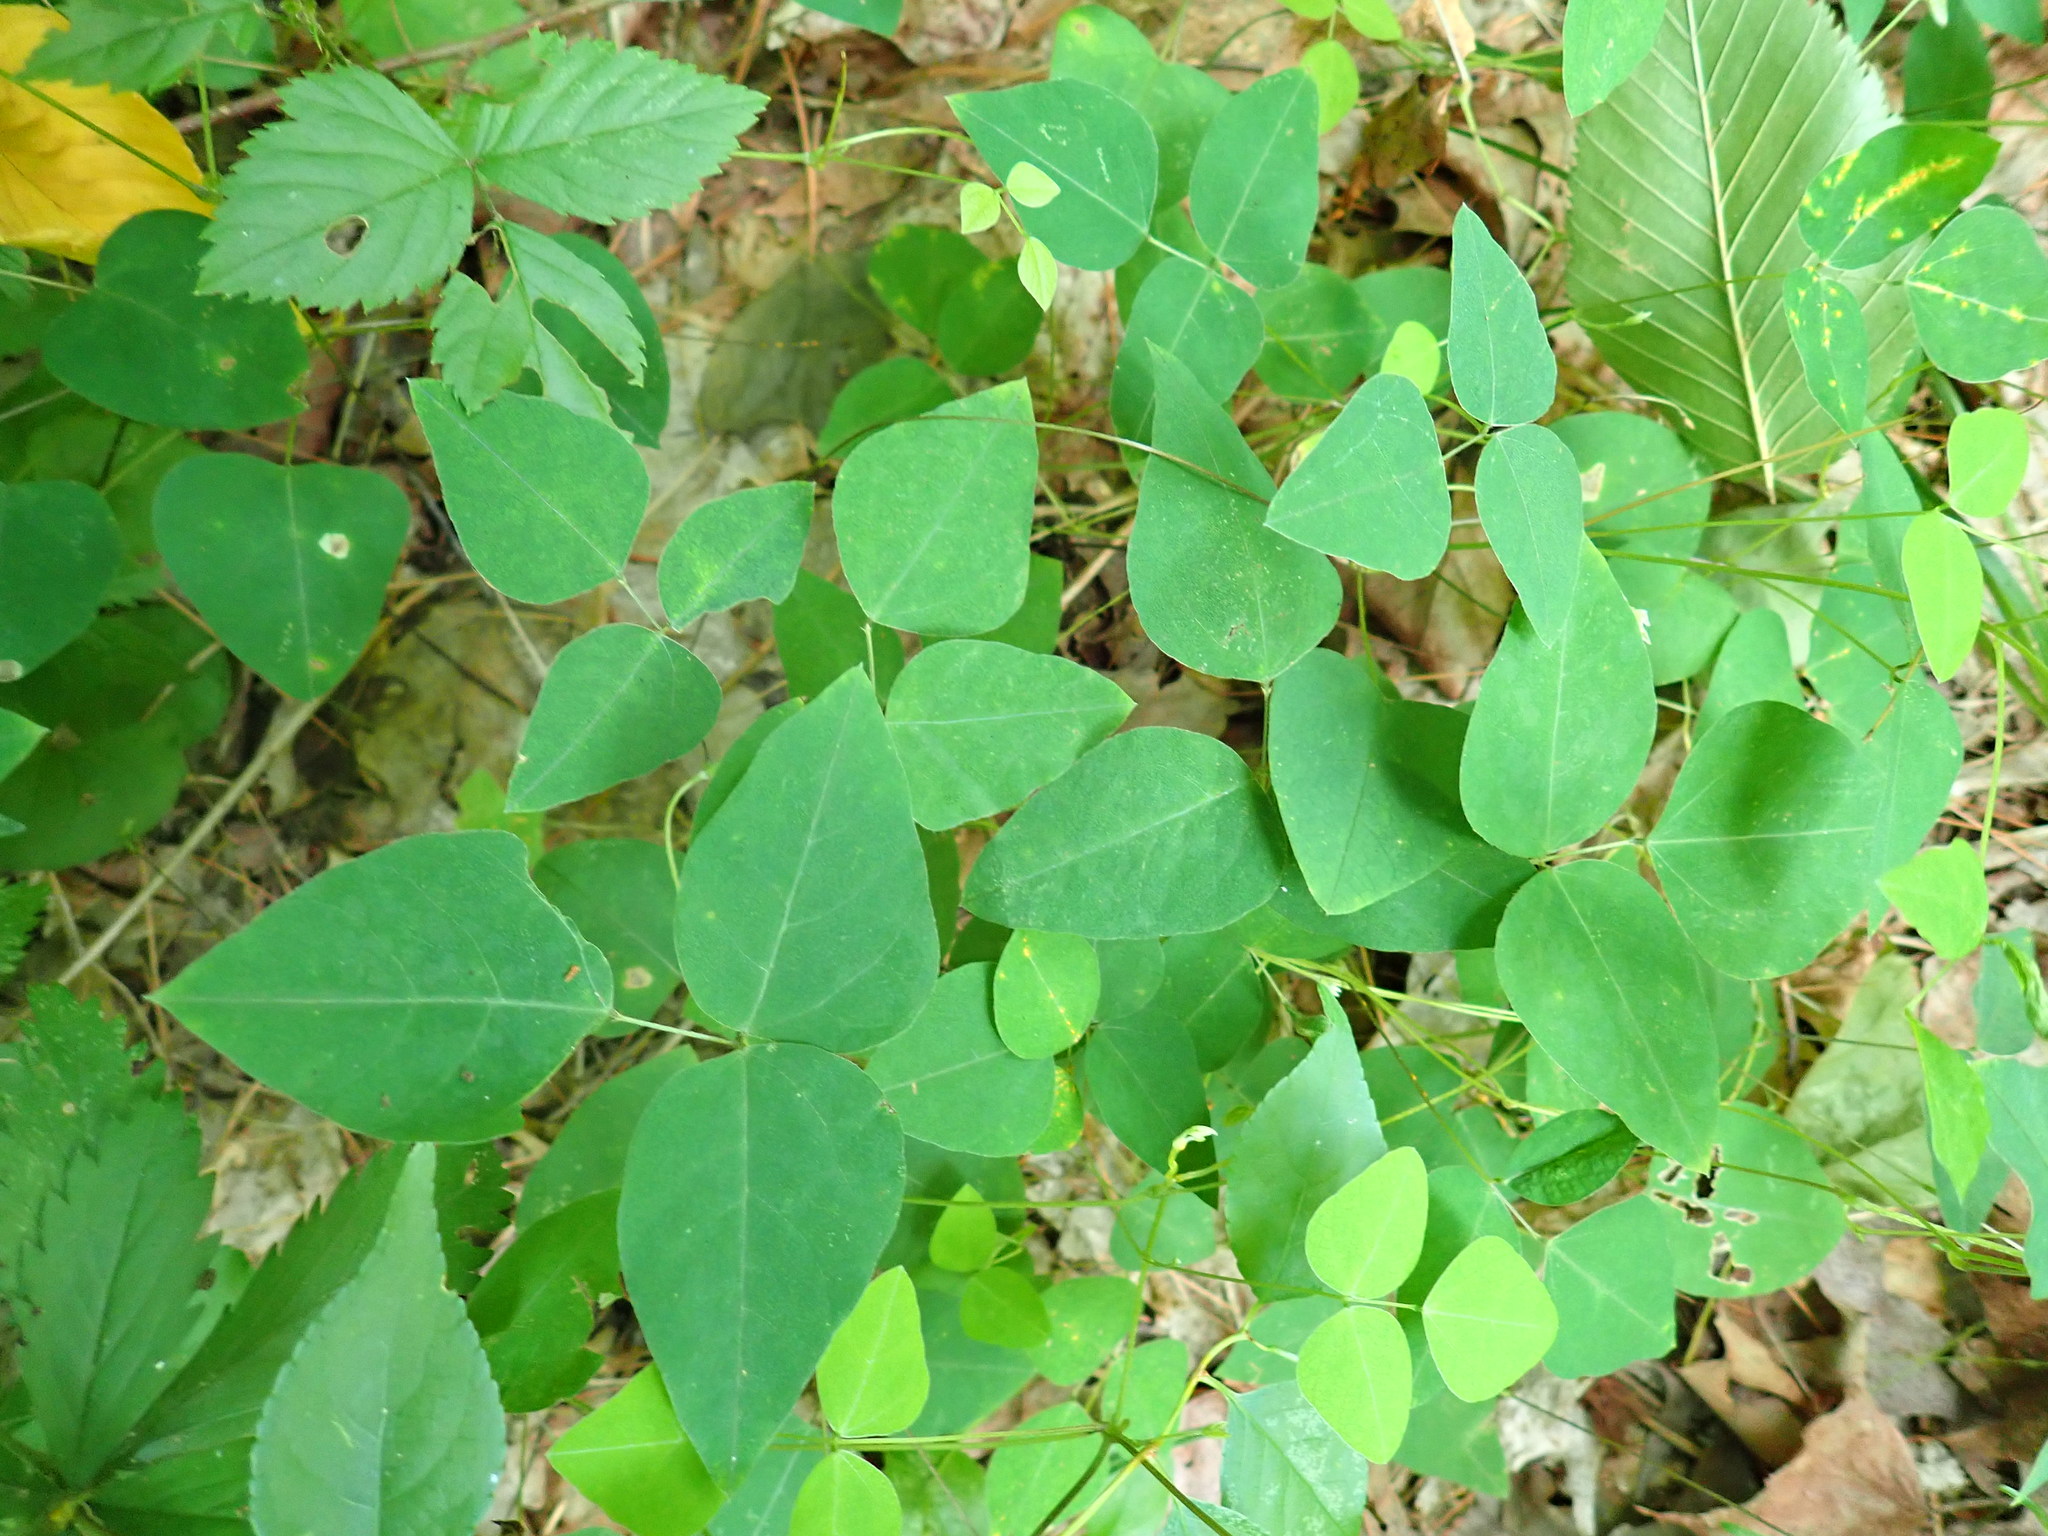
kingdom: Plantae
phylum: Tracheophyta
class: Magnoliopsida
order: Fabales
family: Fabaceae
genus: Amphicarpaea
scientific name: Amphicarpaea bracteata
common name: American hog peanut
